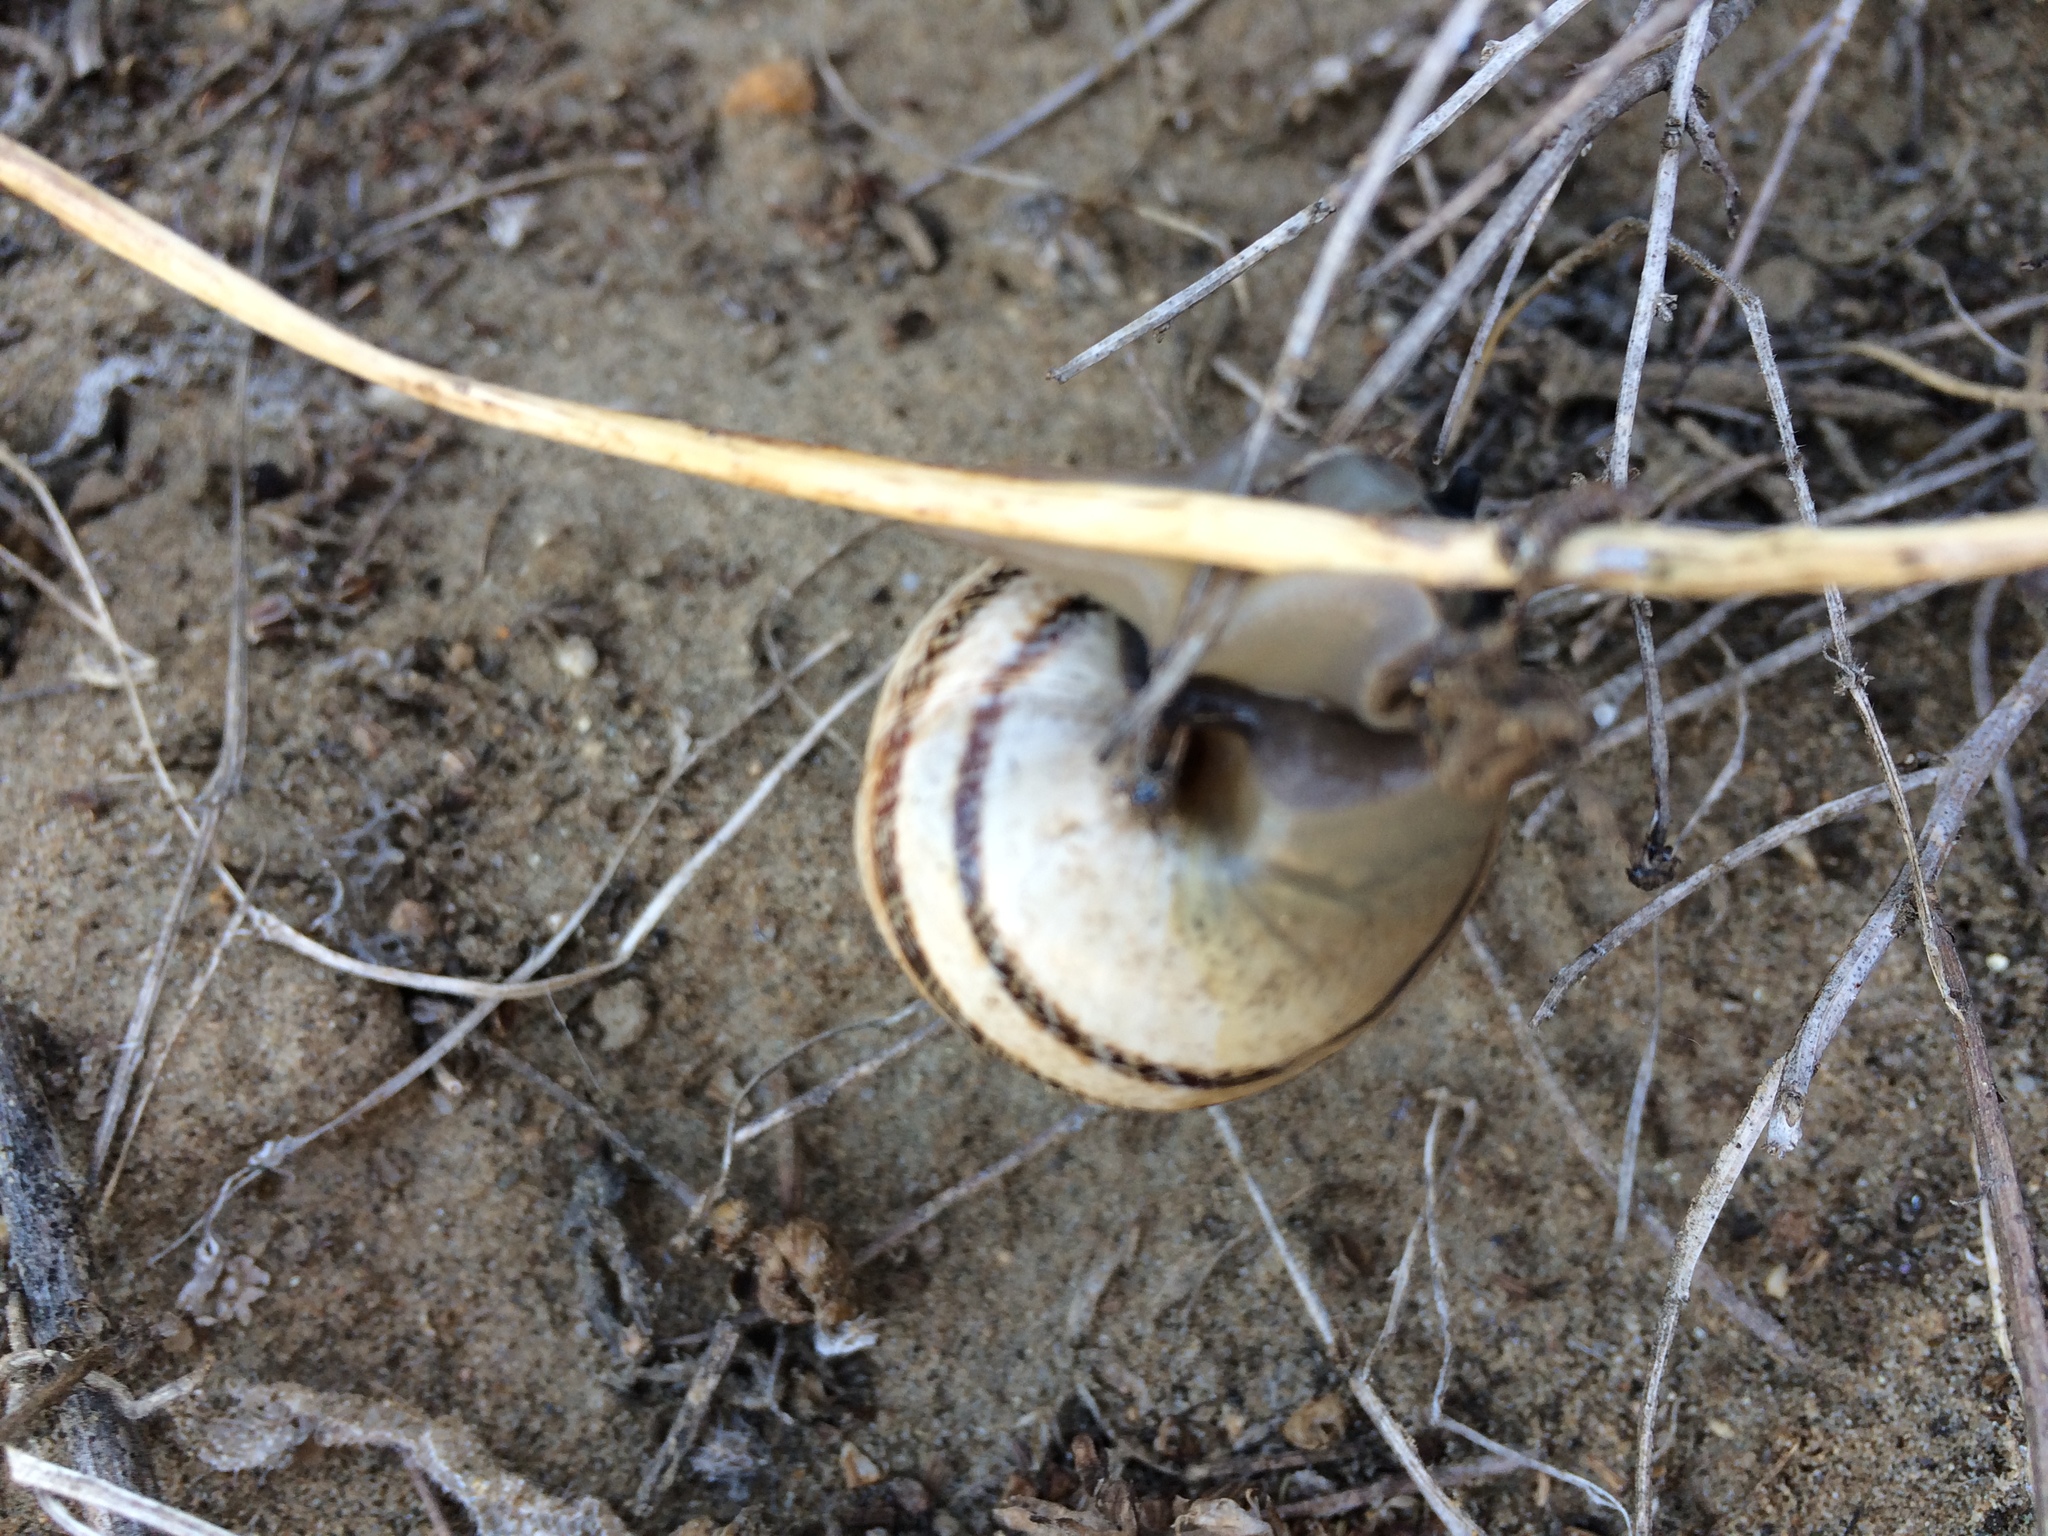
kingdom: Animalia
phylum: Mollusca
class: Gastropoda
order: Stylommatophora
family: Helicidae
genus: Otala
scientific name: Otala lactea
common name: Milk snail
